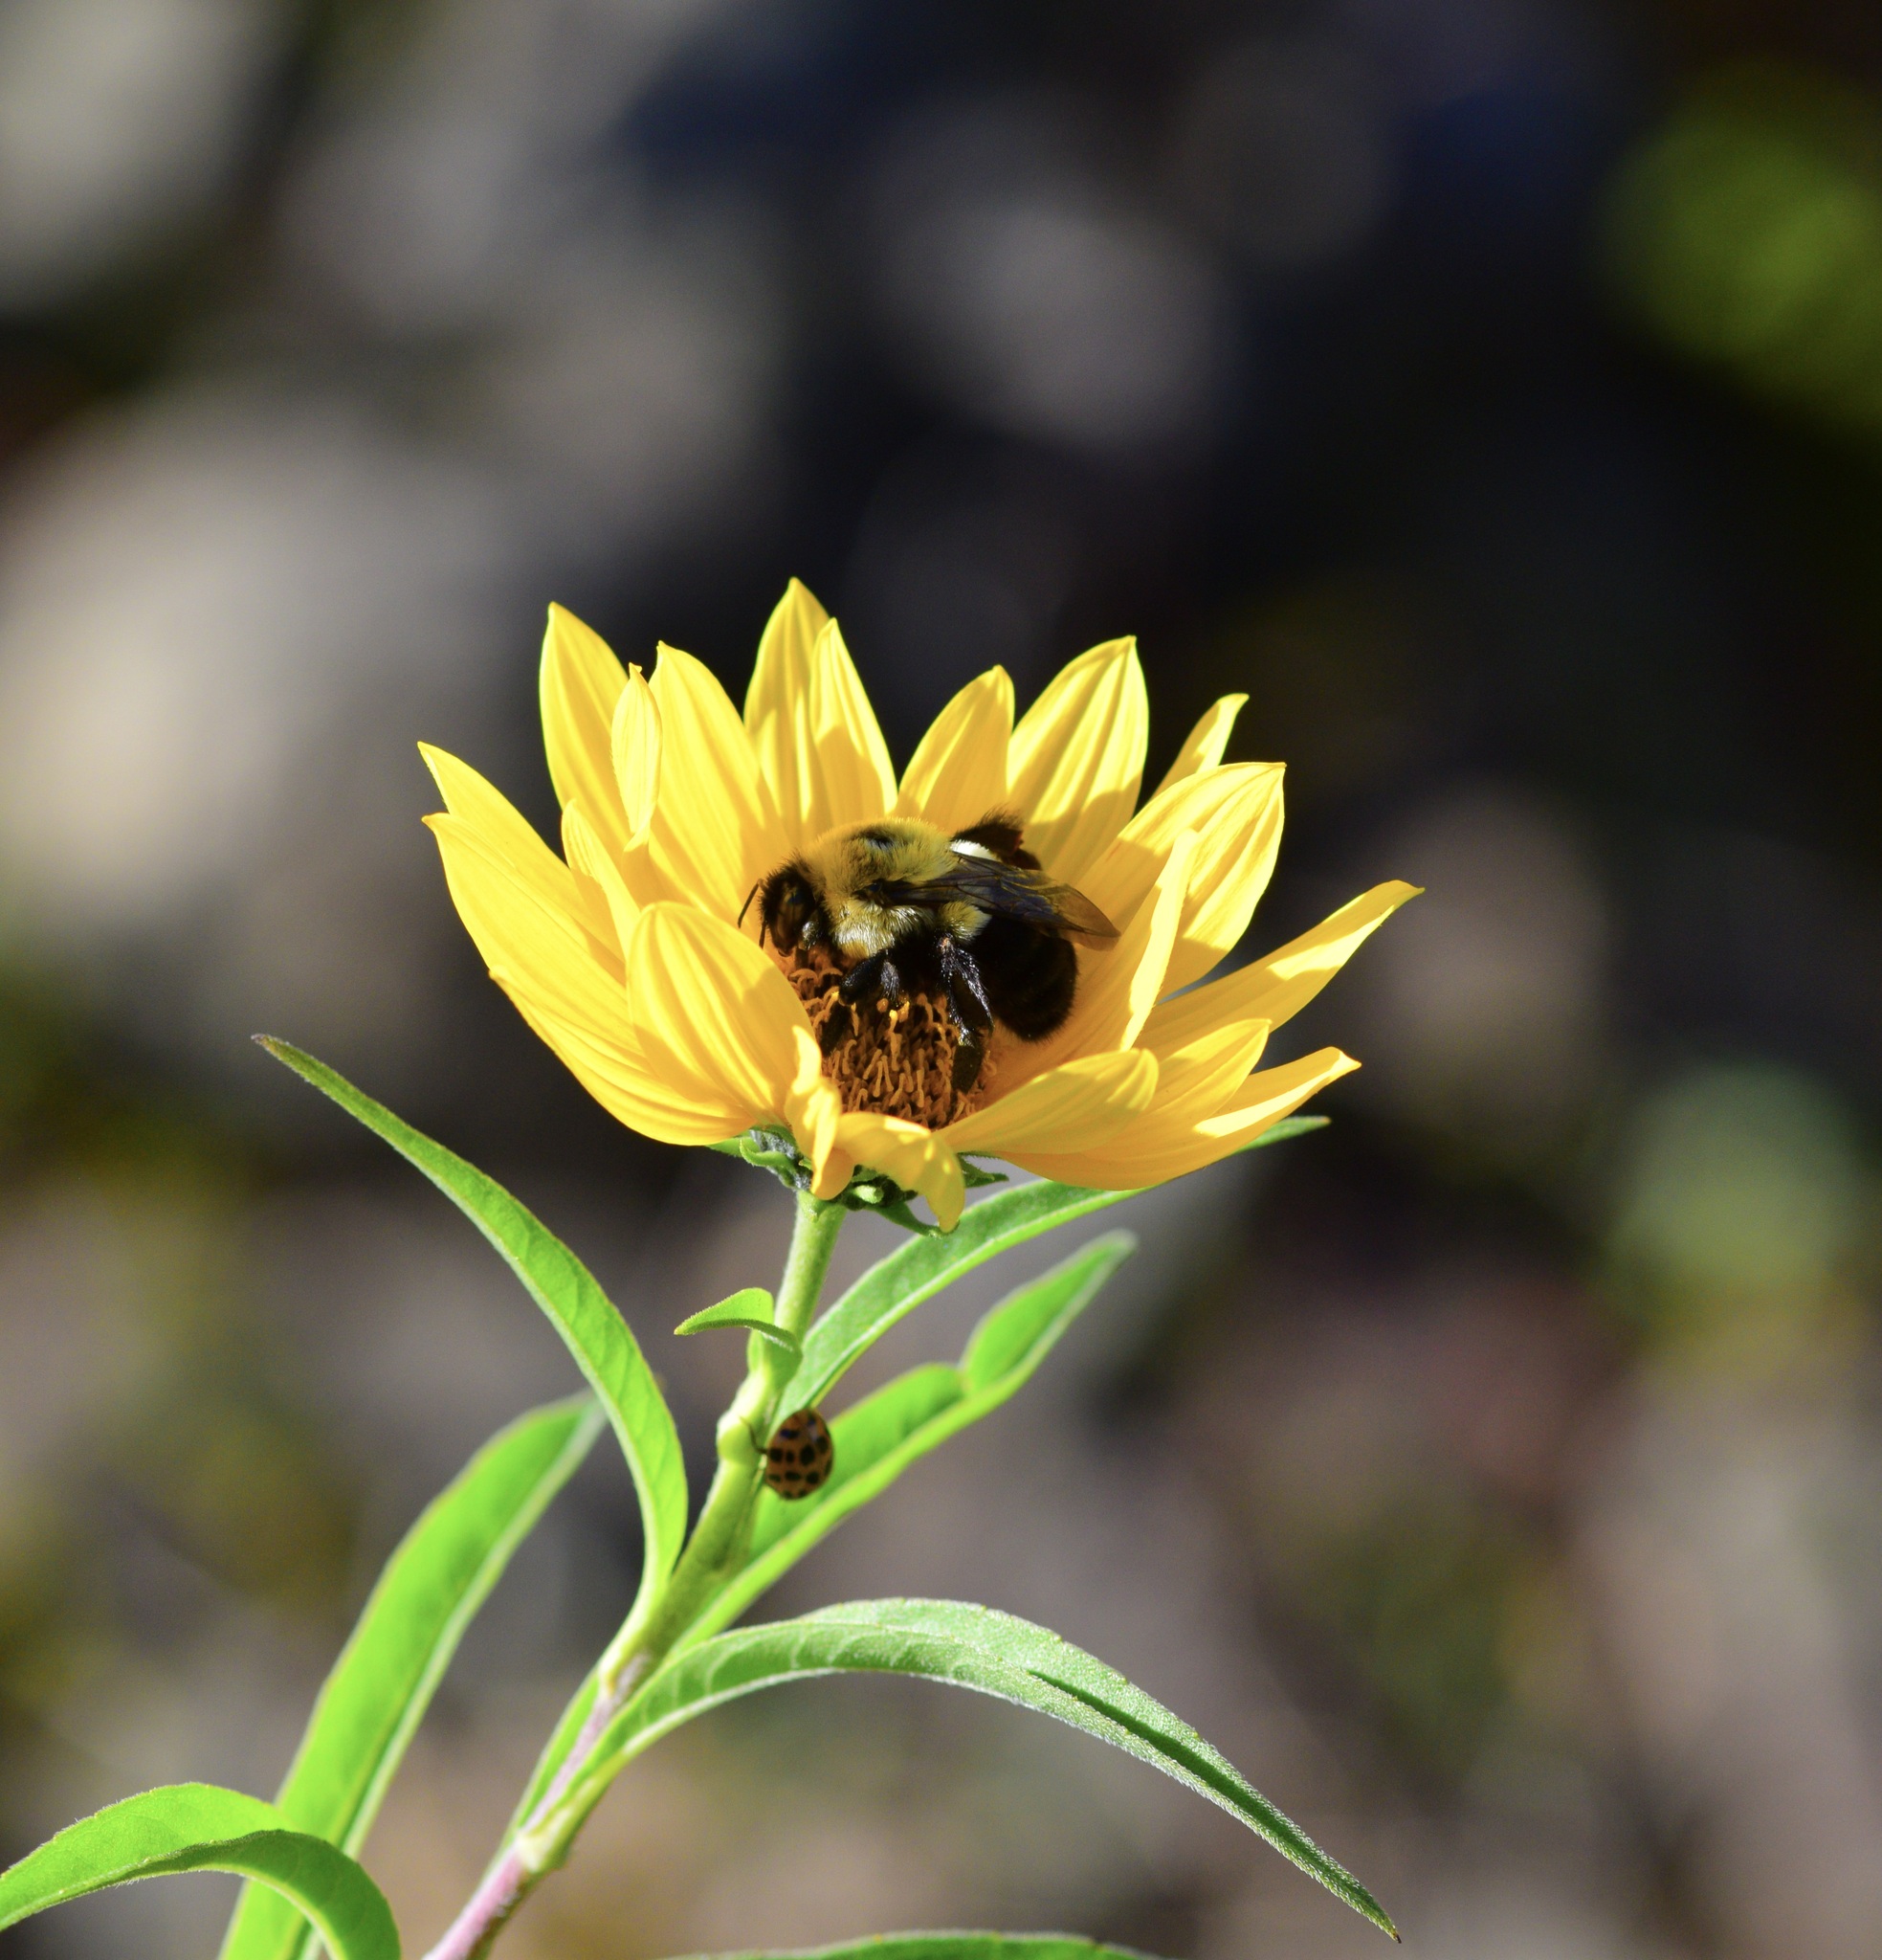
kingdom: Animalia
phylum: Arthropoda
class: Insecta
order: Hymenoptera
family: Apidae
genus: Bombus
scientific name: Bombus impatiens
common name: Common eastern bumble bee
